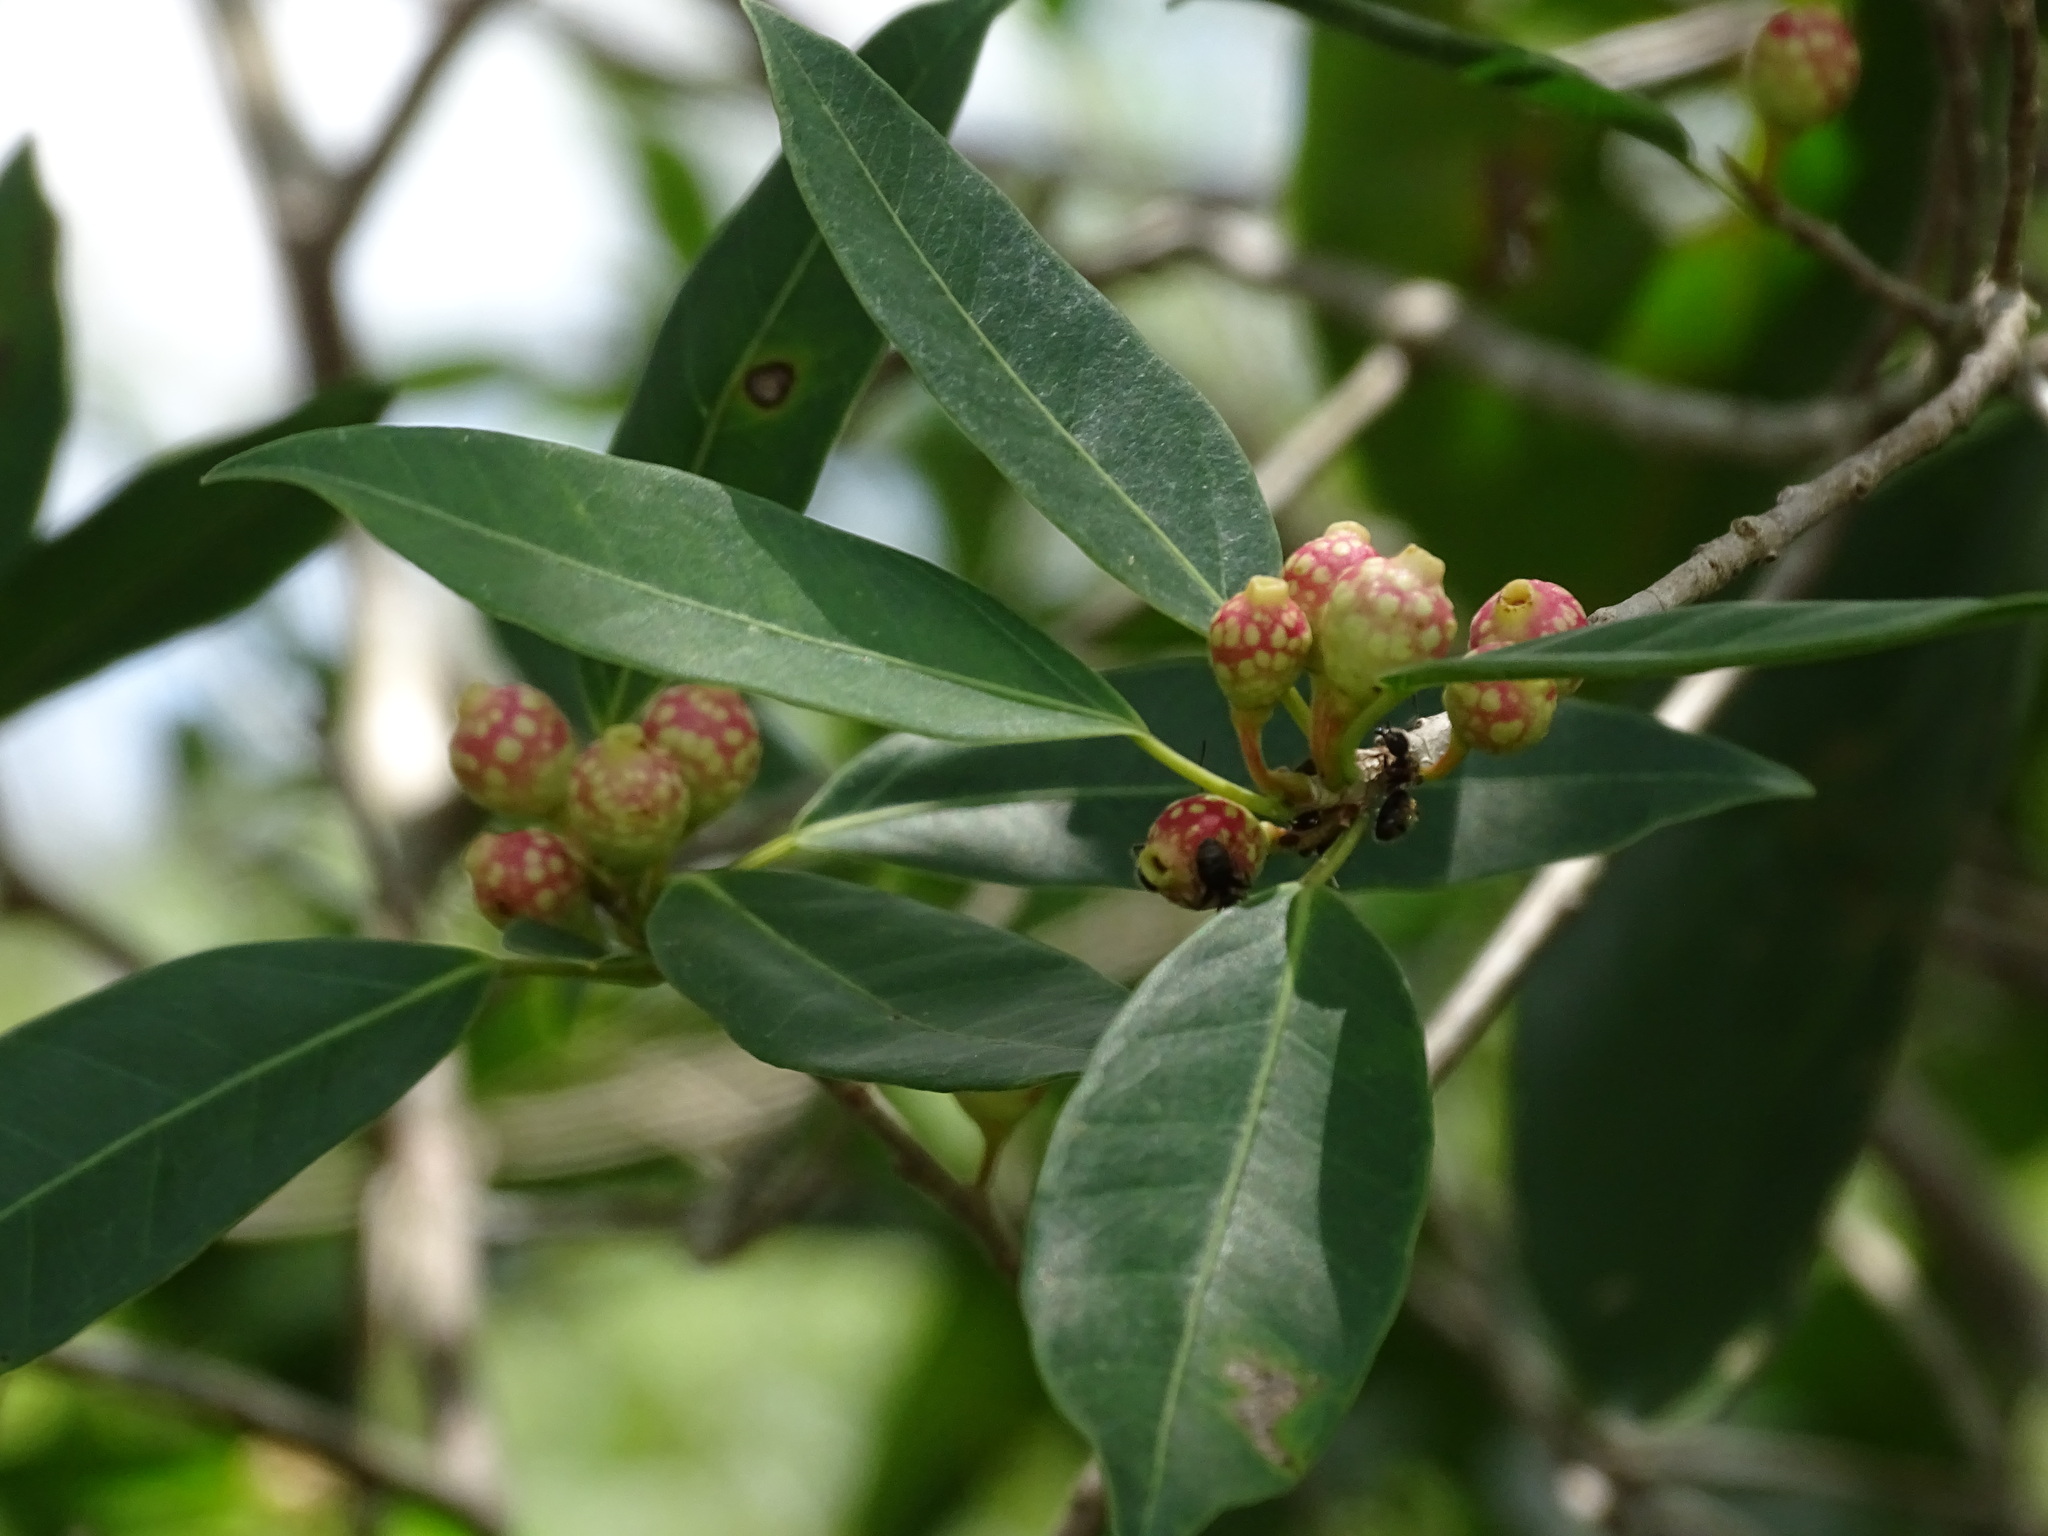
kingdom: Plantae
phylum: Tracheophyta
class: Magnoliopsida
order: Rosales
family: Moraceae
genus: Ficus
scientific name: Ficus pertusa
